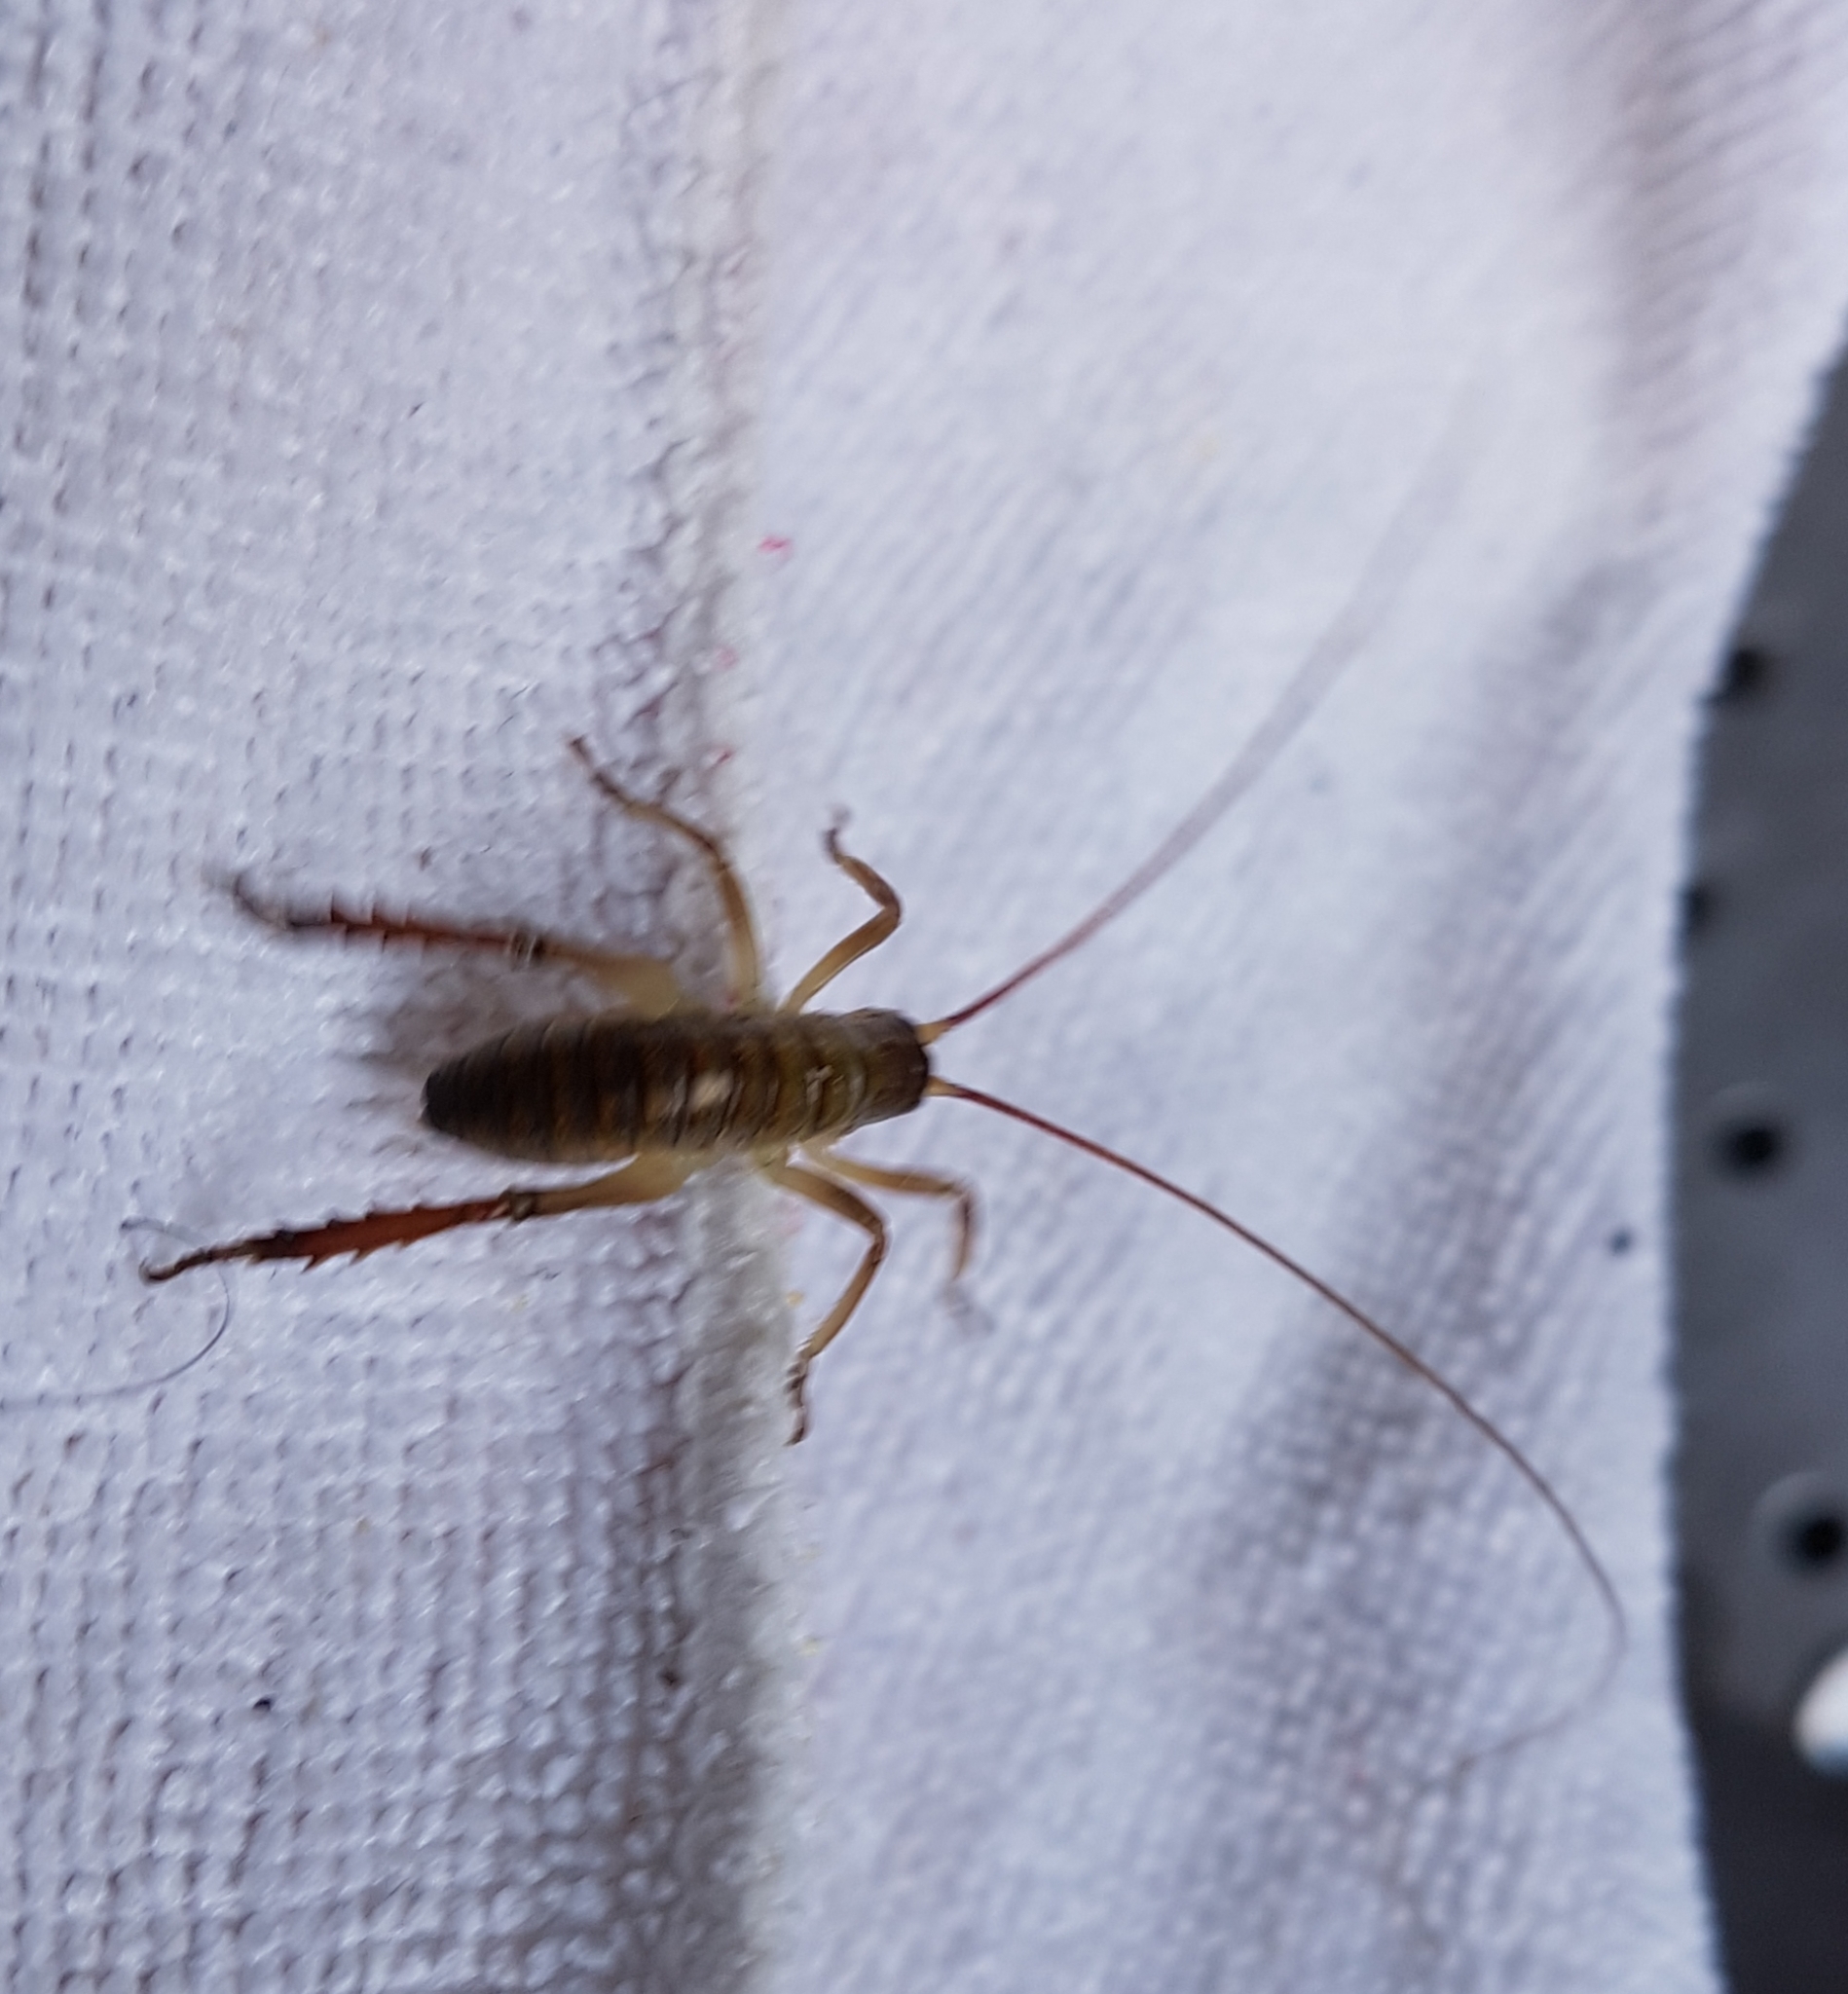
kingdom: Animalia
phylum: Arthropoda
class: Insecta
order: Orthoptera
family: Anostostomatidae
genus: Hemideina
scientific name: Hemideina thoracica
